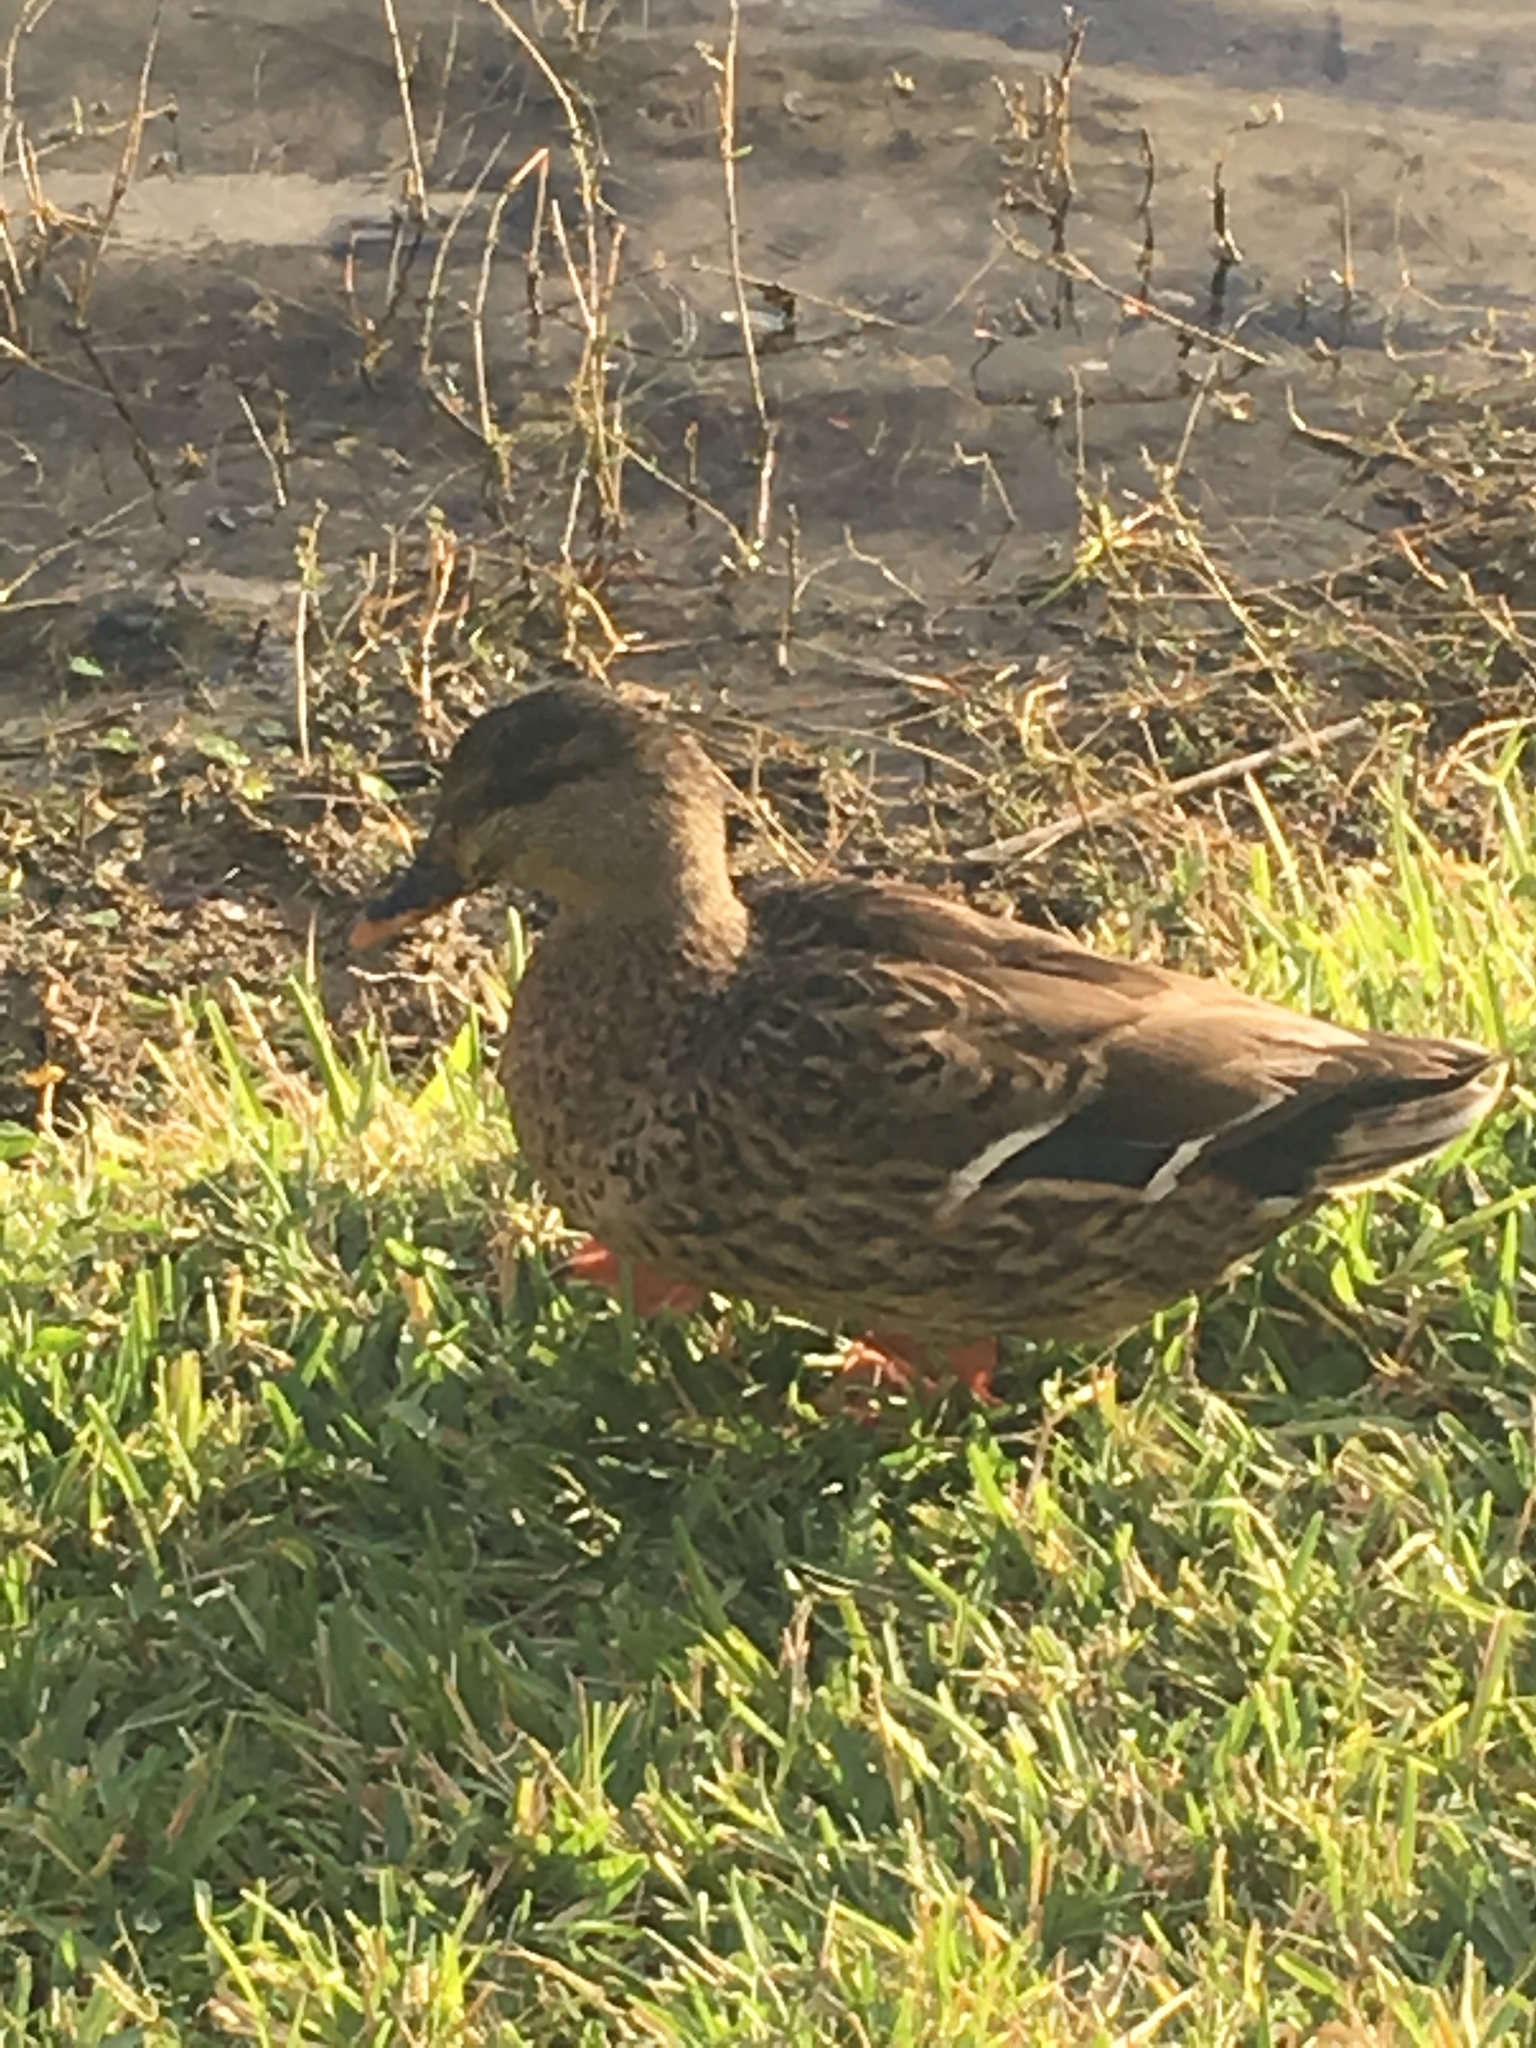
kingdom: Animalia
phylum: Chordata
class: Aves
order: Anseriformes
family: Anatidae
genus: Anas
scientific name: Anas platyrhynchos
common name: Mallard
